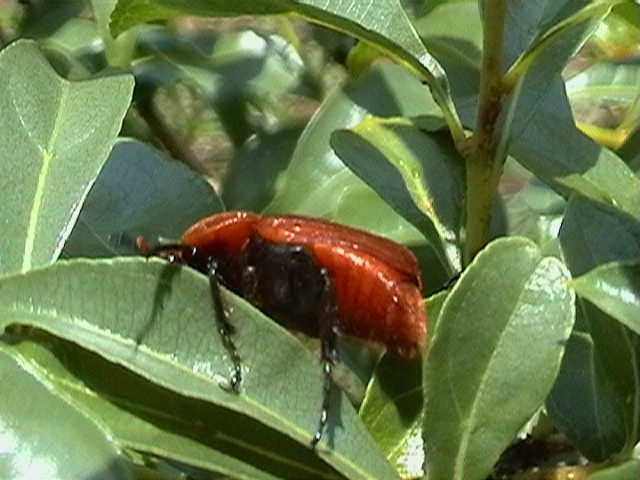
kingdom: Animalia
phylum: Arthropoda
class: Insecta
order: Coleoptera
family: Scarabaeidae
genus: Myodermum
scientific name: Myodermum rufum
